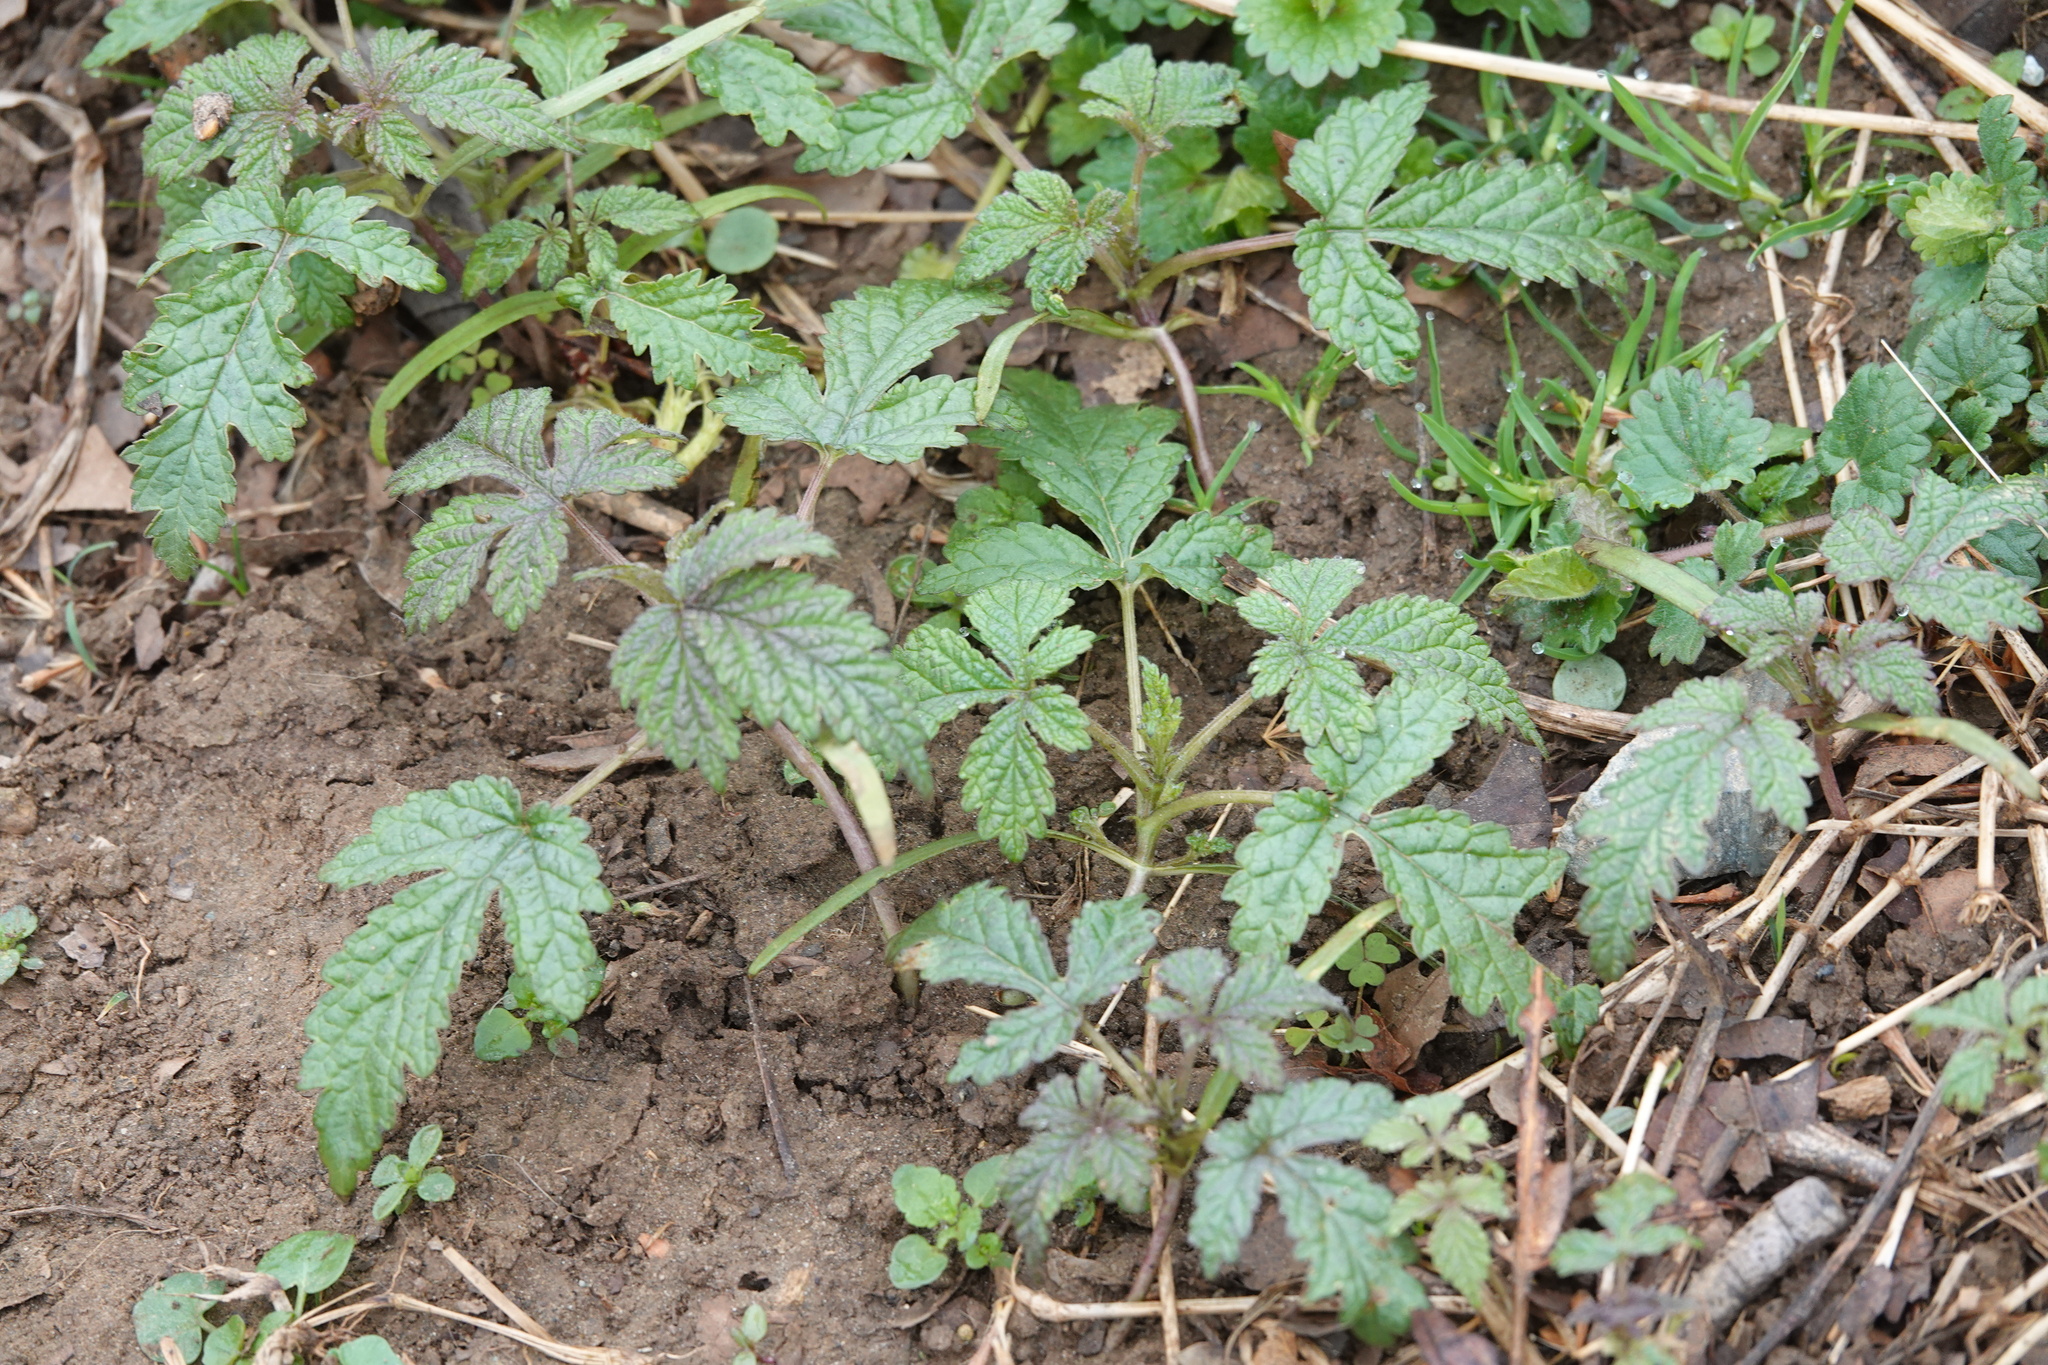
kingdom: Plantae
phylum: Tracheophyta
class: Magnoliopsida
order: Rosales
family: Cannabaceae
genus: Humulus
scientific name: Humulus scandens
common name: Japanese hop
